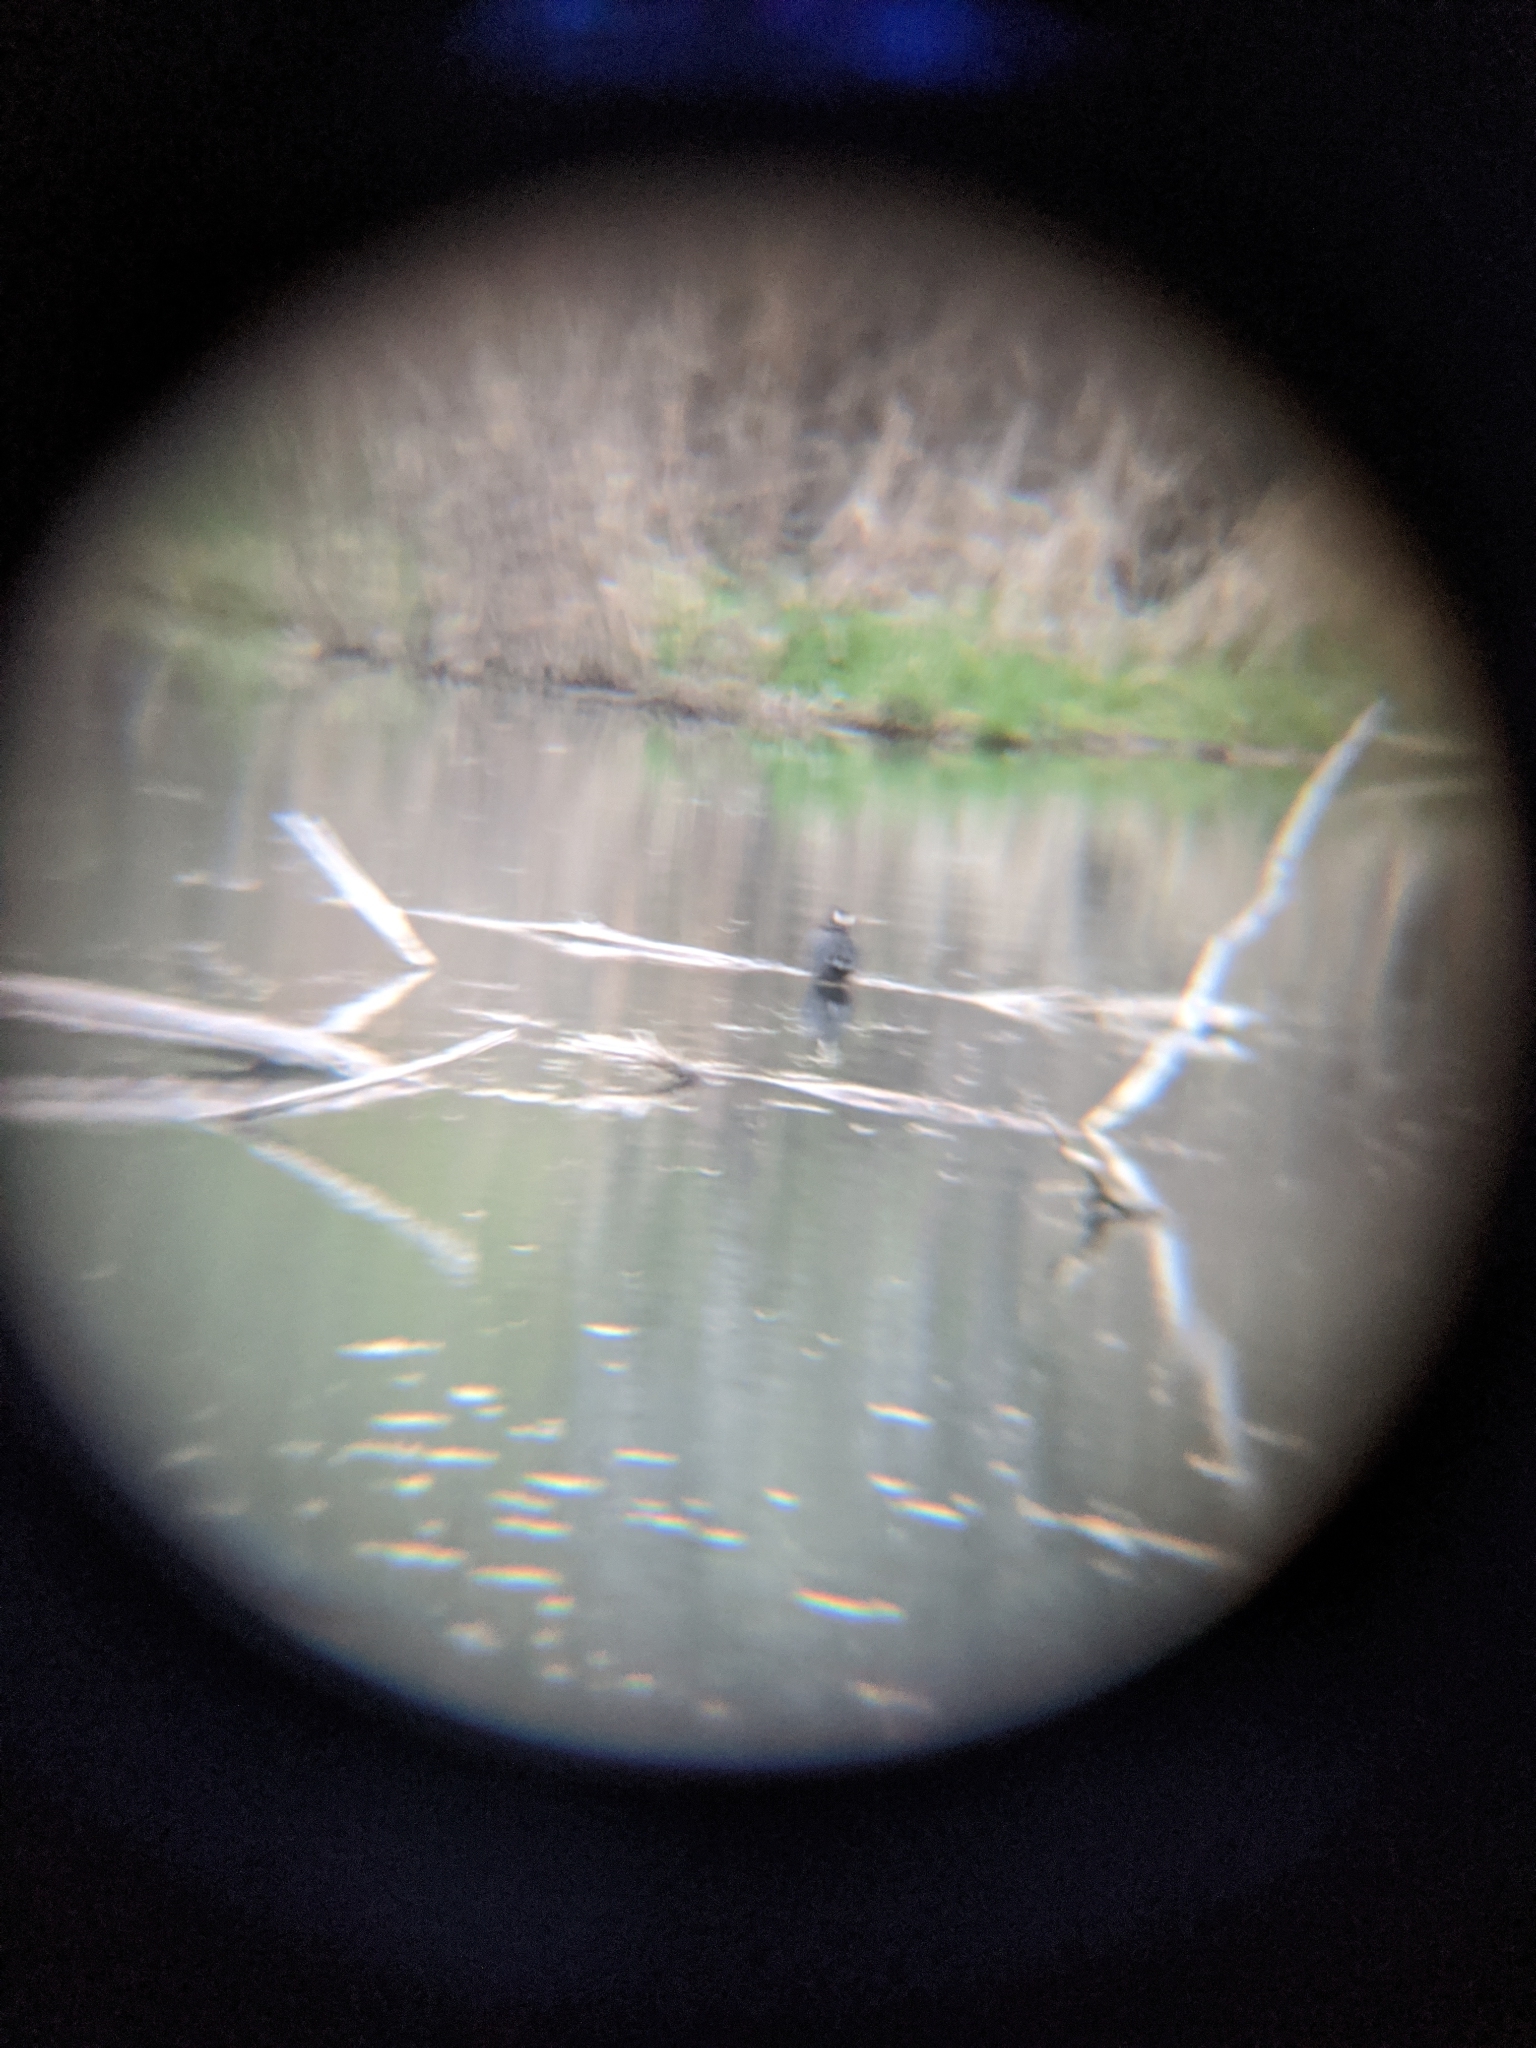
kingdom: Animalia
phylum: Chordata
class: Aves
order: Gruiformes
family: Rallidae
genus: Fulica
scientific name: Fulica americana
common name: American coot
